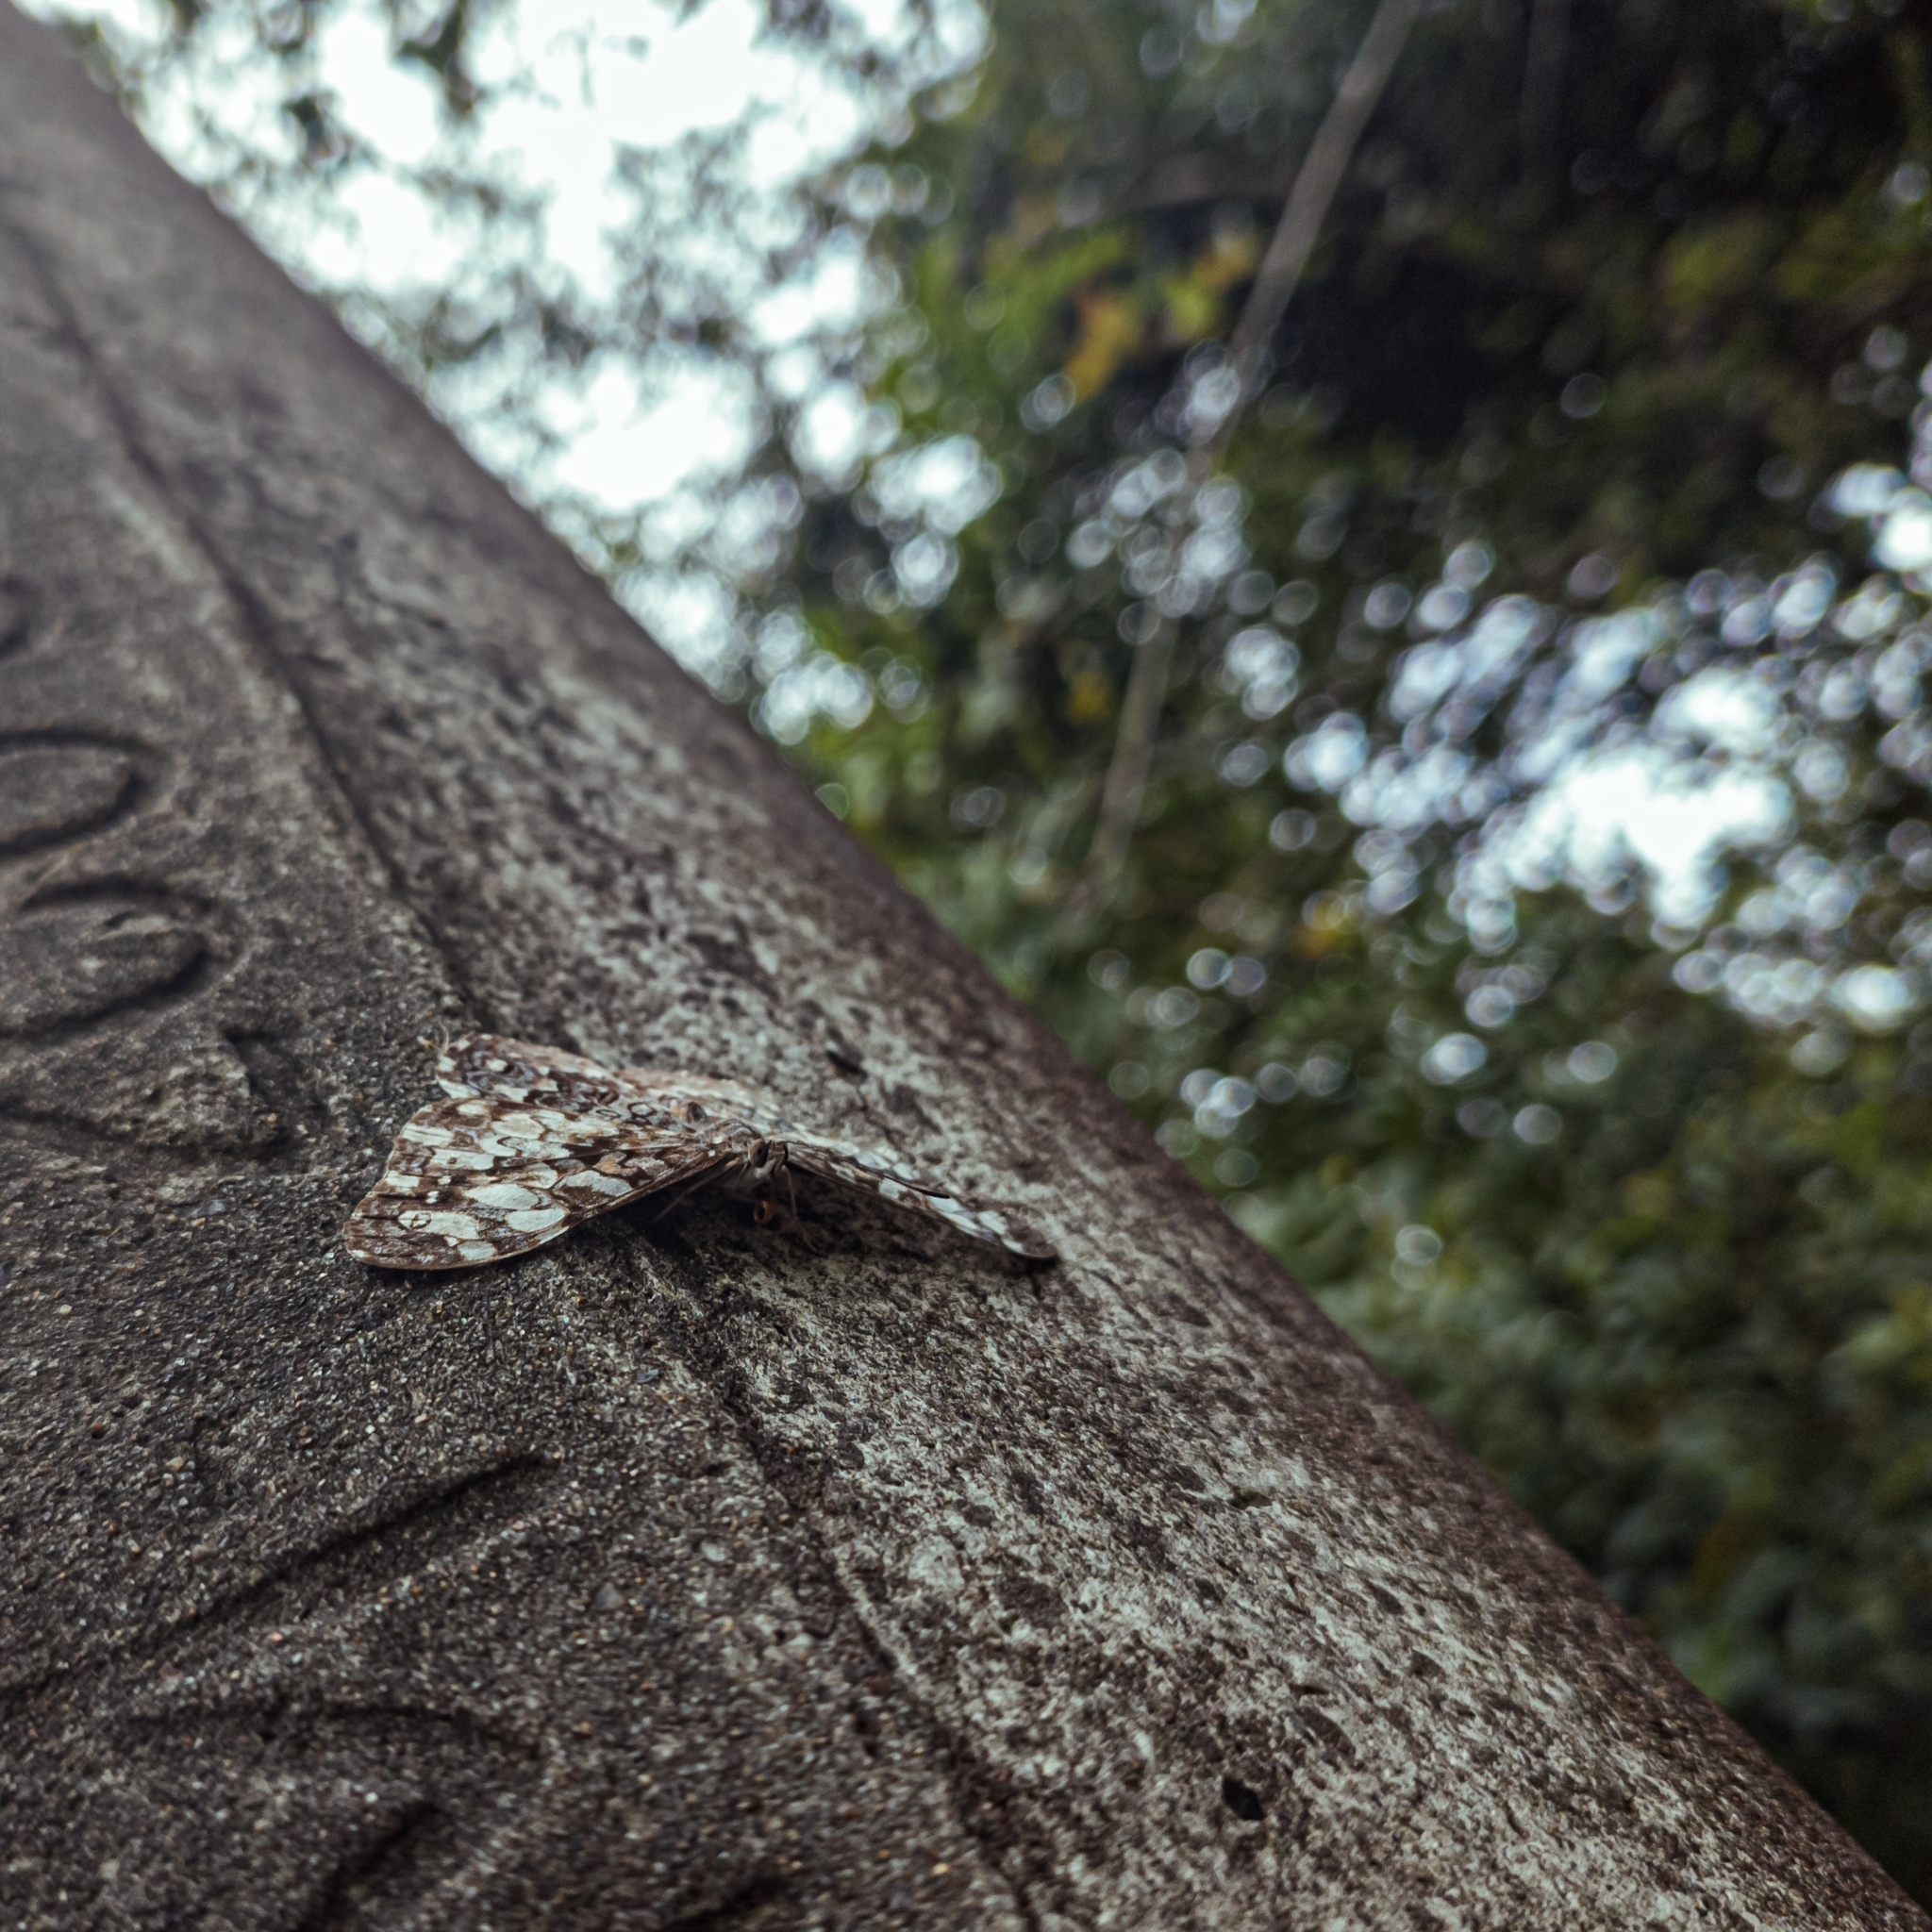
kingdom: Animalia
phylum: Arthropoda
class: Insecta
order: Lepidoptera
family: Nymphalidae
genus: Hamadryas
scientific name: Hamadryas epinome
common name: Epinome cracker
